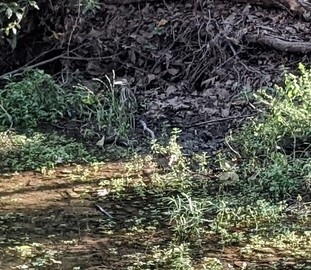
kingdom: Animalia
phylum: Chordata
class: Aves
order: Pelecaniformes
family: Ardeidae
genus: Butorides
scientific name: Butorides virescens
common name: Green heron
